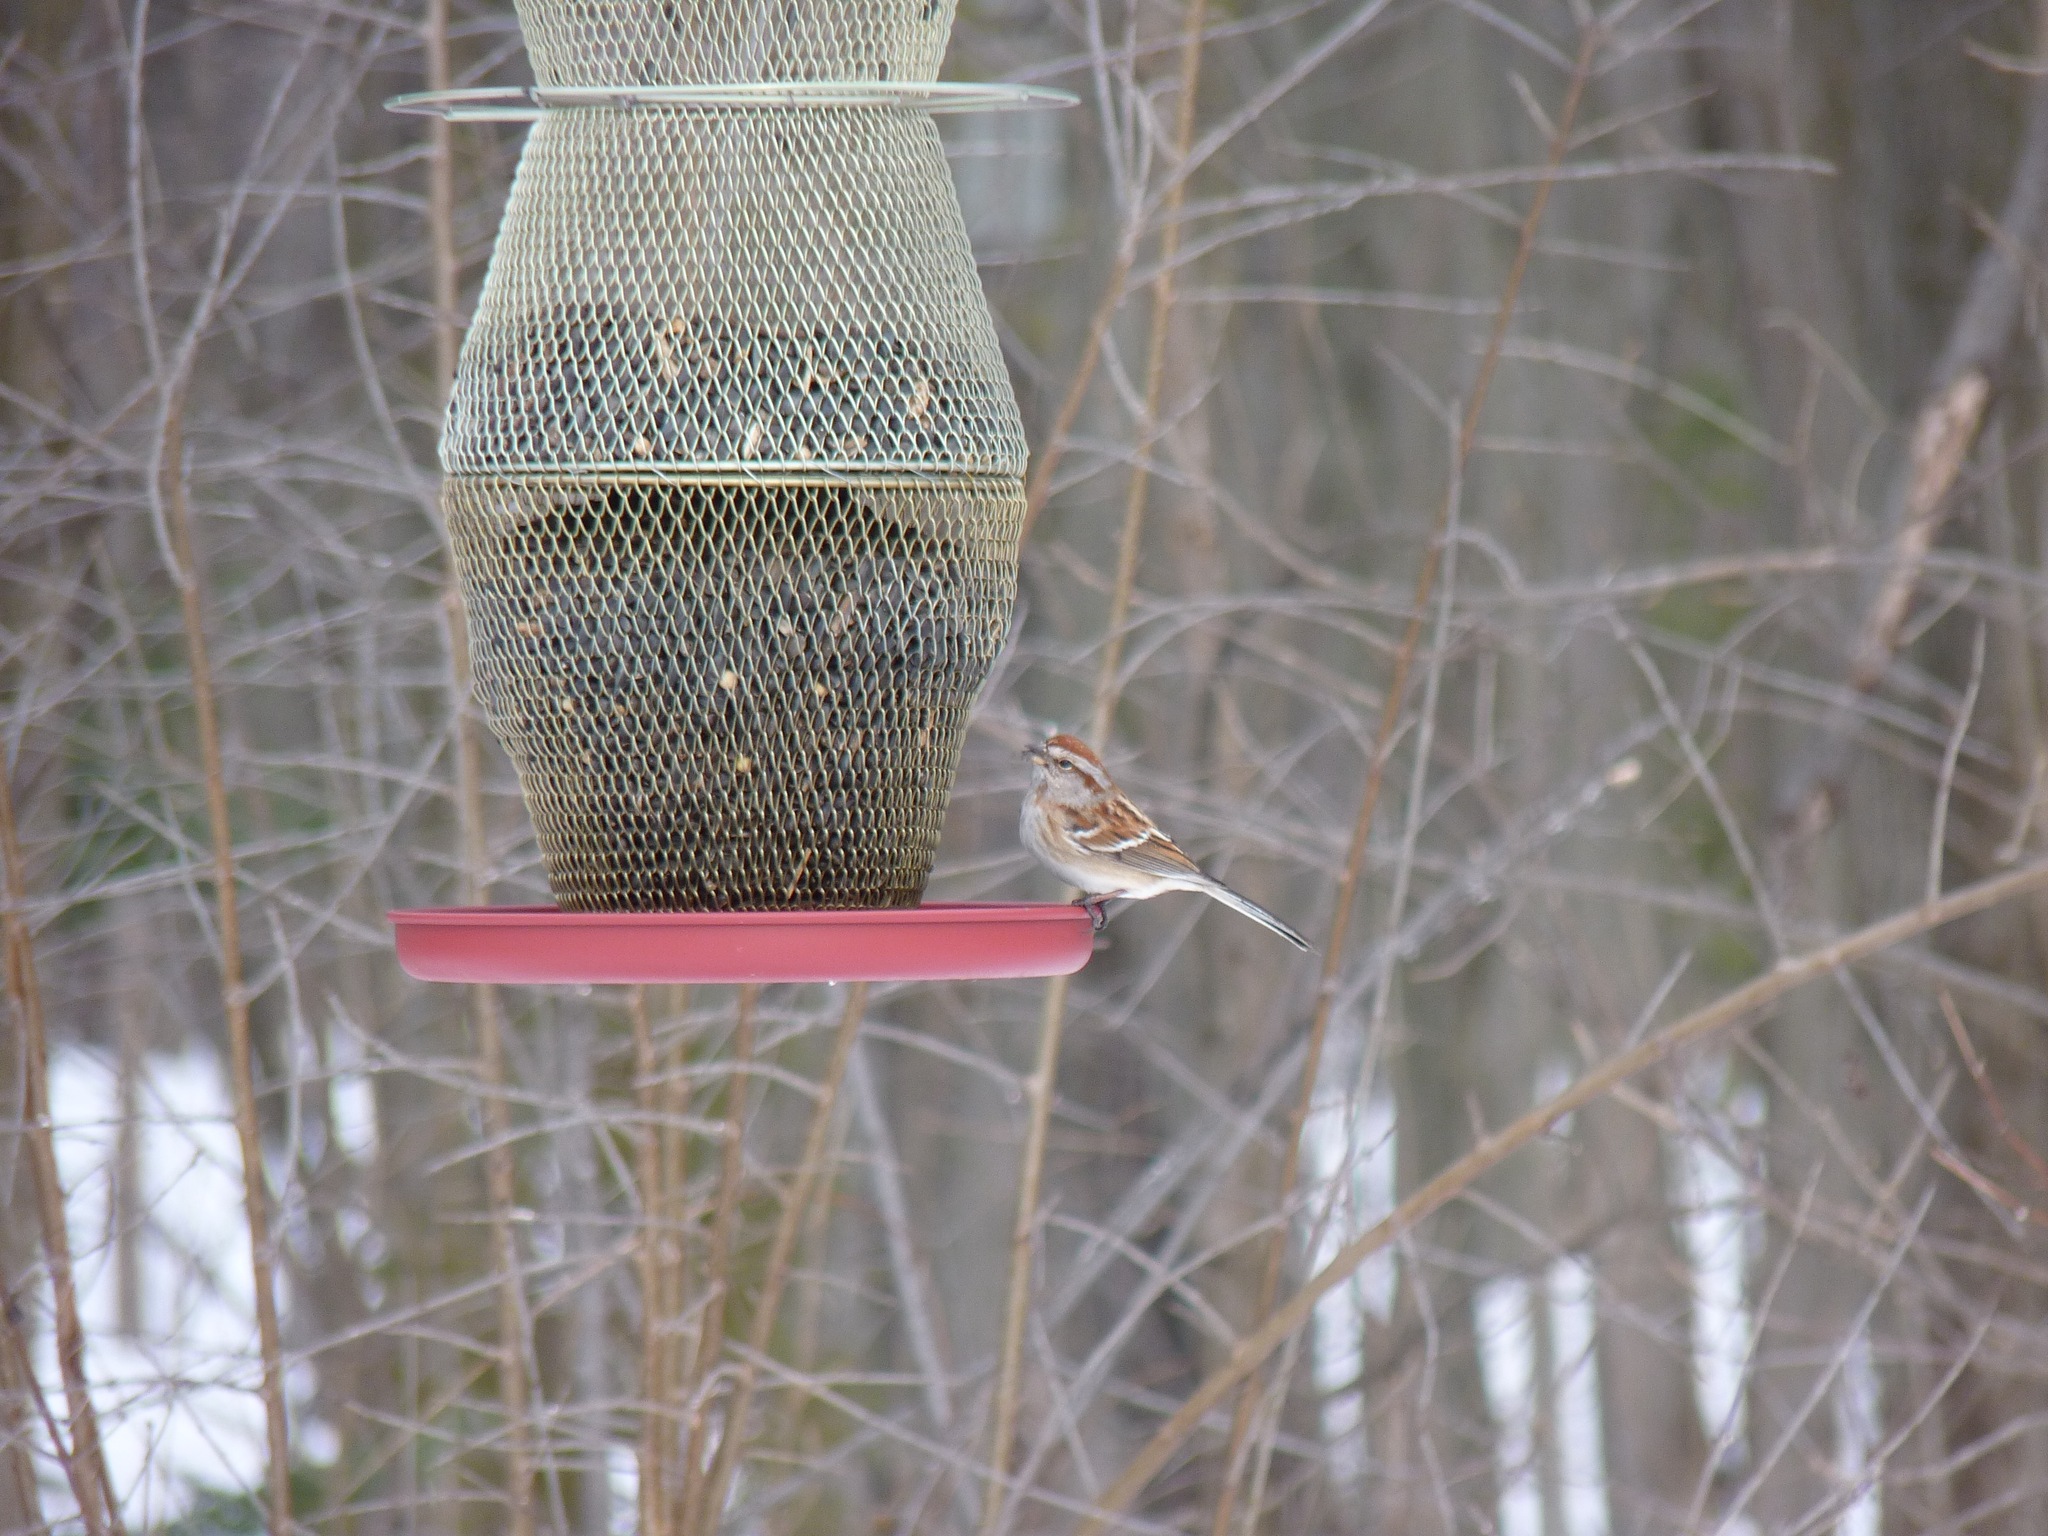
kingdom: Animalia
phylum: Chordata
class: Aves
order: Passeriformes
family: Passerellidae
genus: Spizelloides
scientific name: Spizelloides arborea
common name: American tree sparrow
